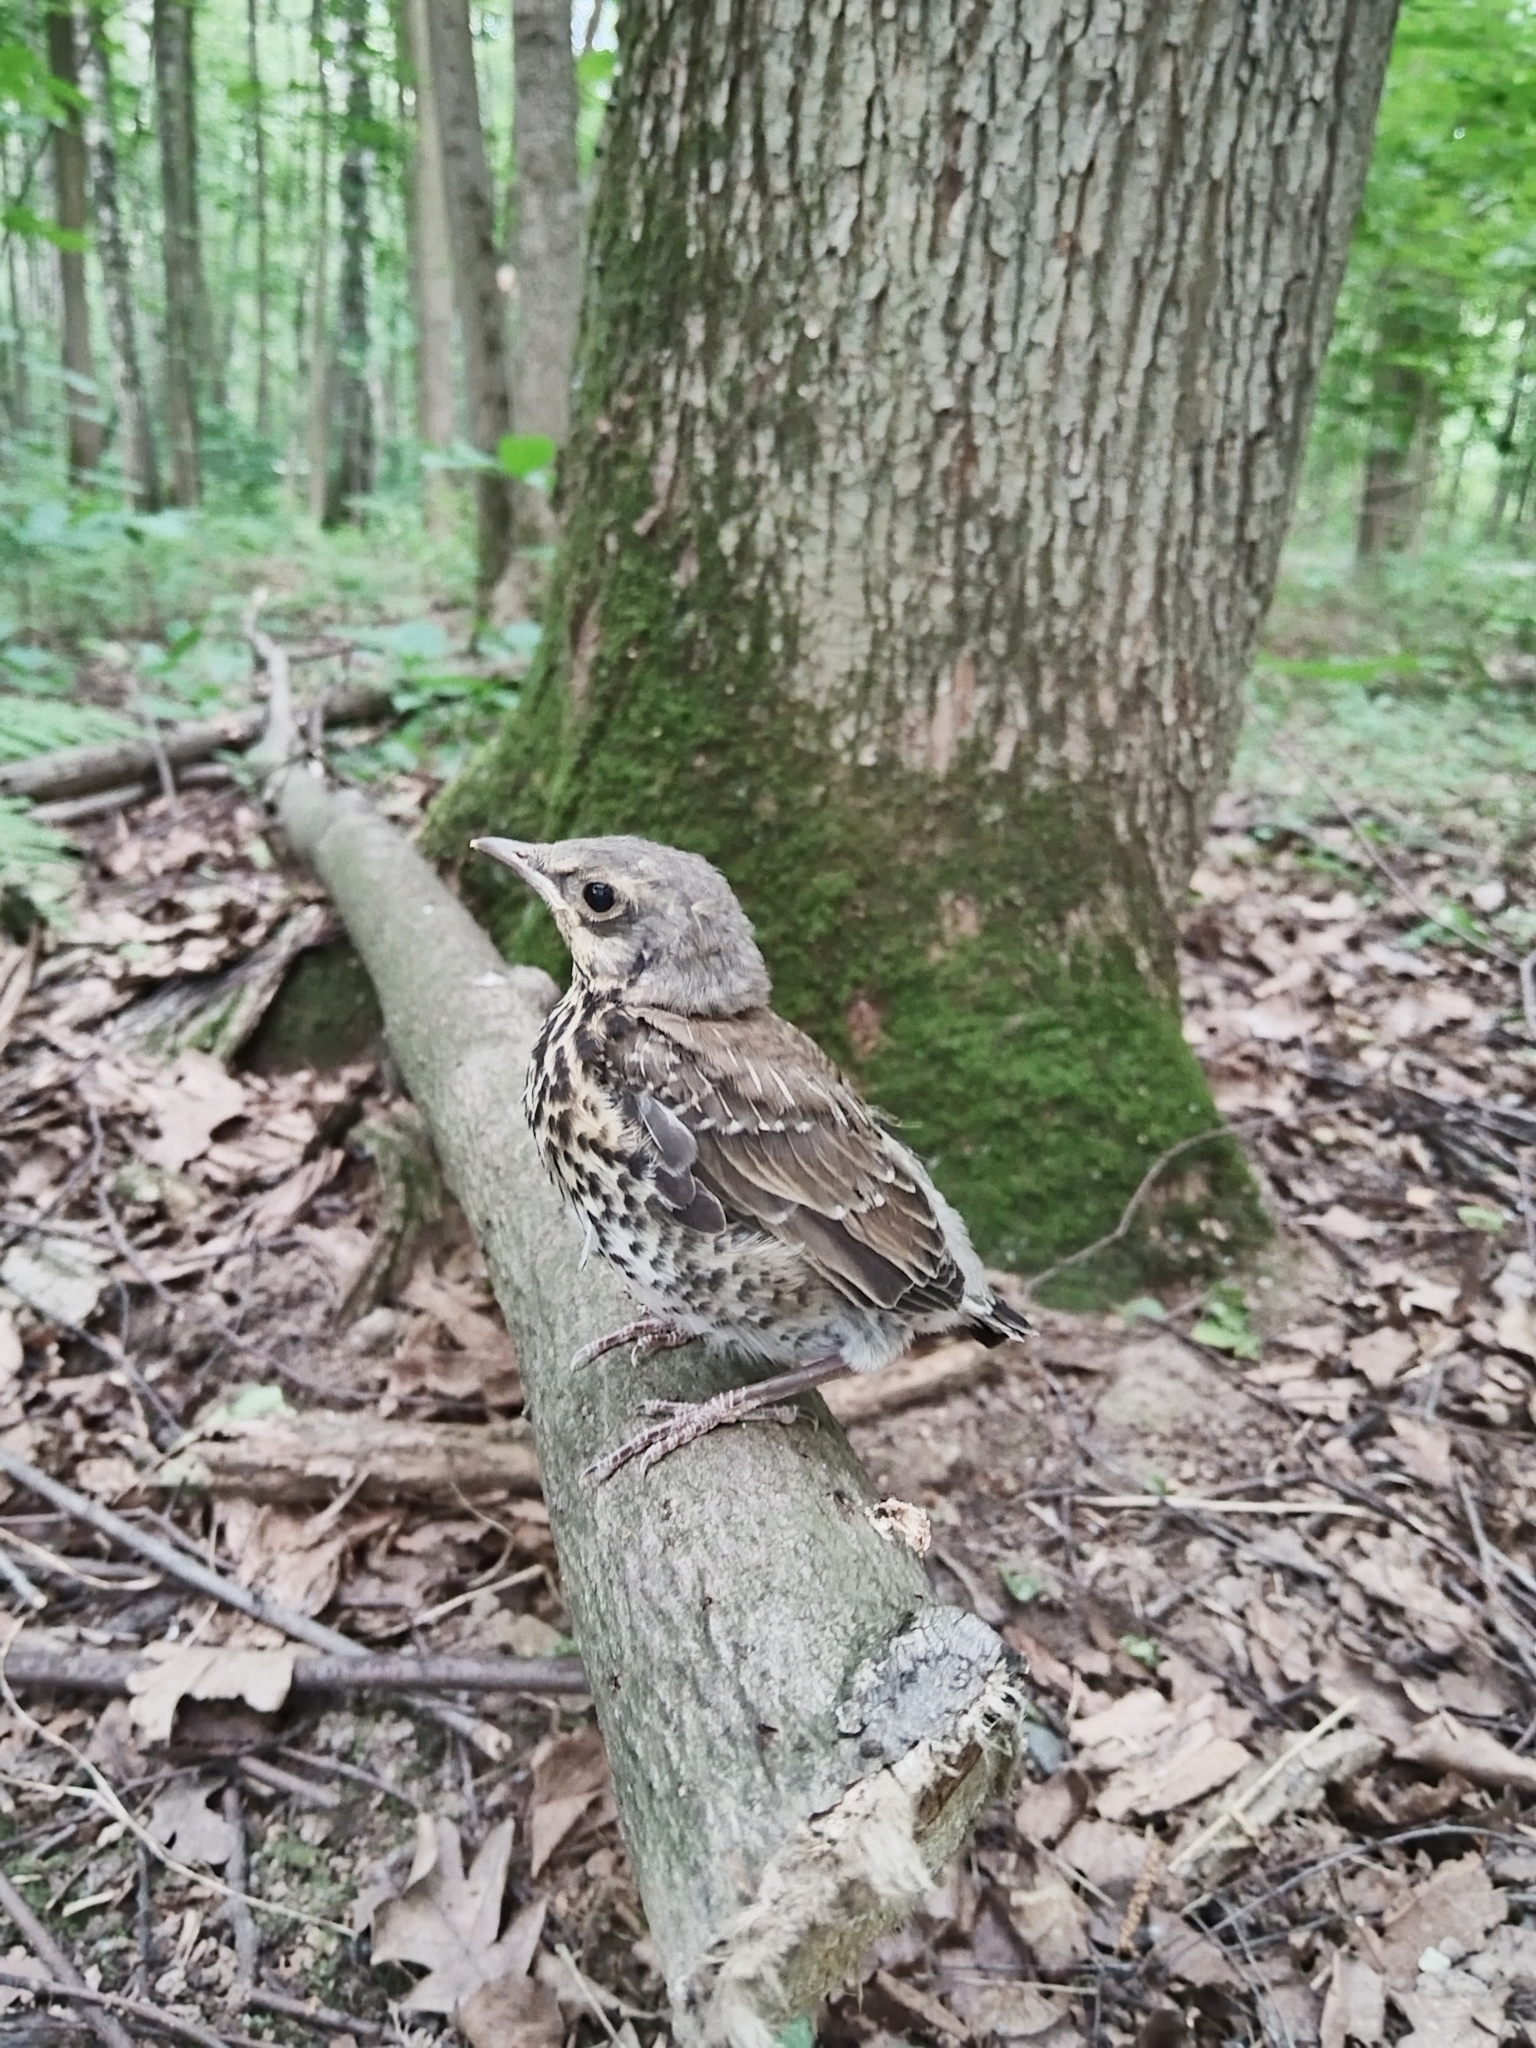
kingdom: Animalia
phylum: Chordata
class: Aves
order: Passeriformes
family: Turdidae
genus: Turdus
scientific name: Turdus pilaris
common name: Fieldfare
